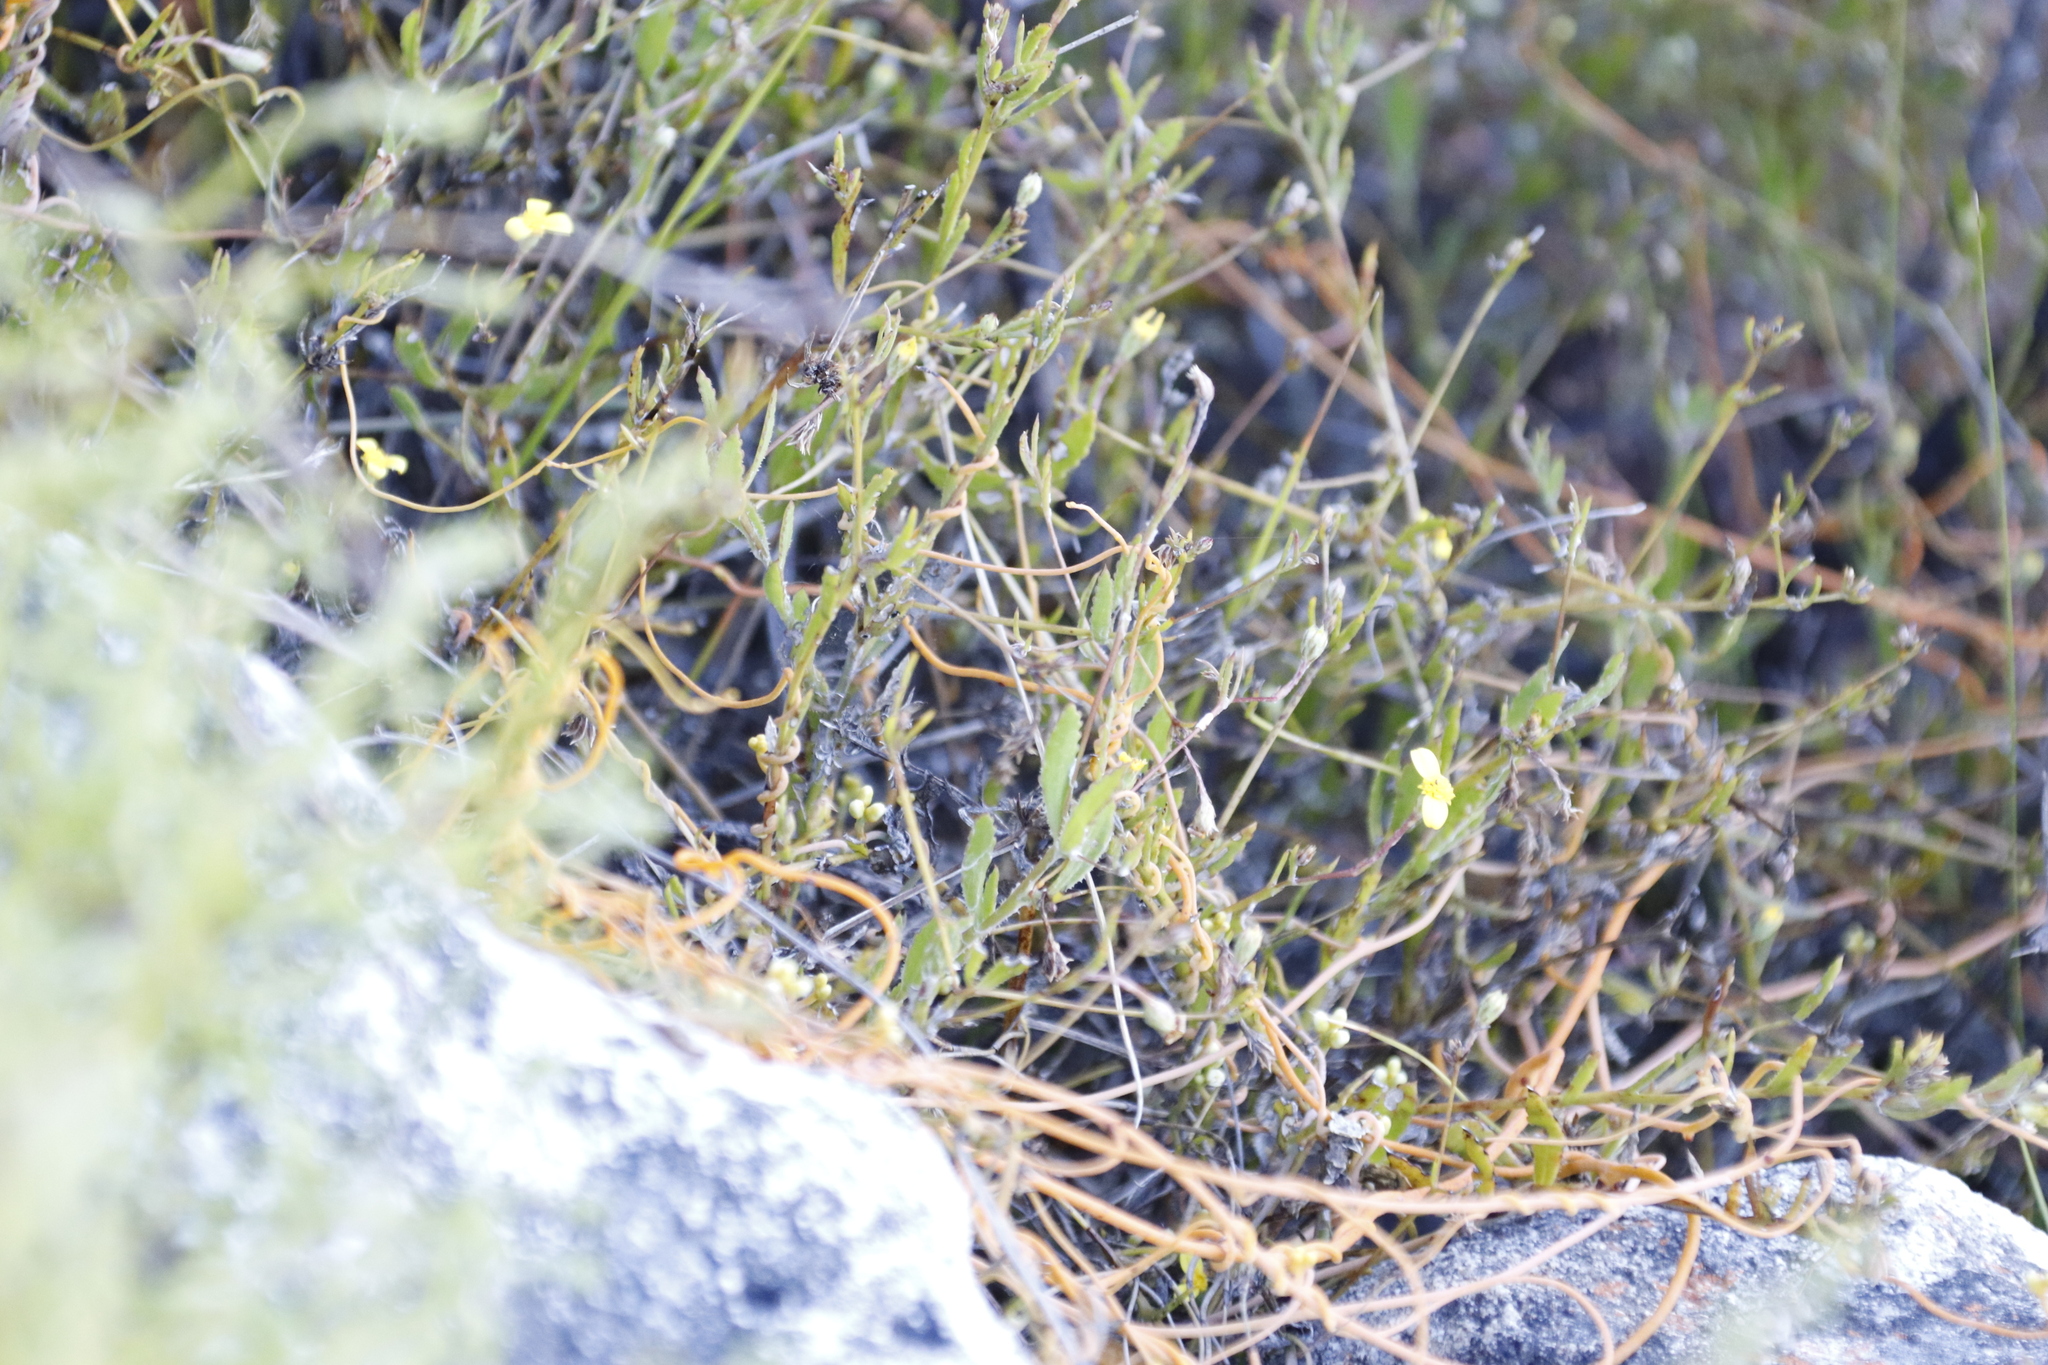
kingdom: Plantae
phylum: Tracheophyta
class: Magnoliopsida
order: Asterales
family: Asteraceae
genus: Osteospermum
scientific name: Osteospermum ciliatum
